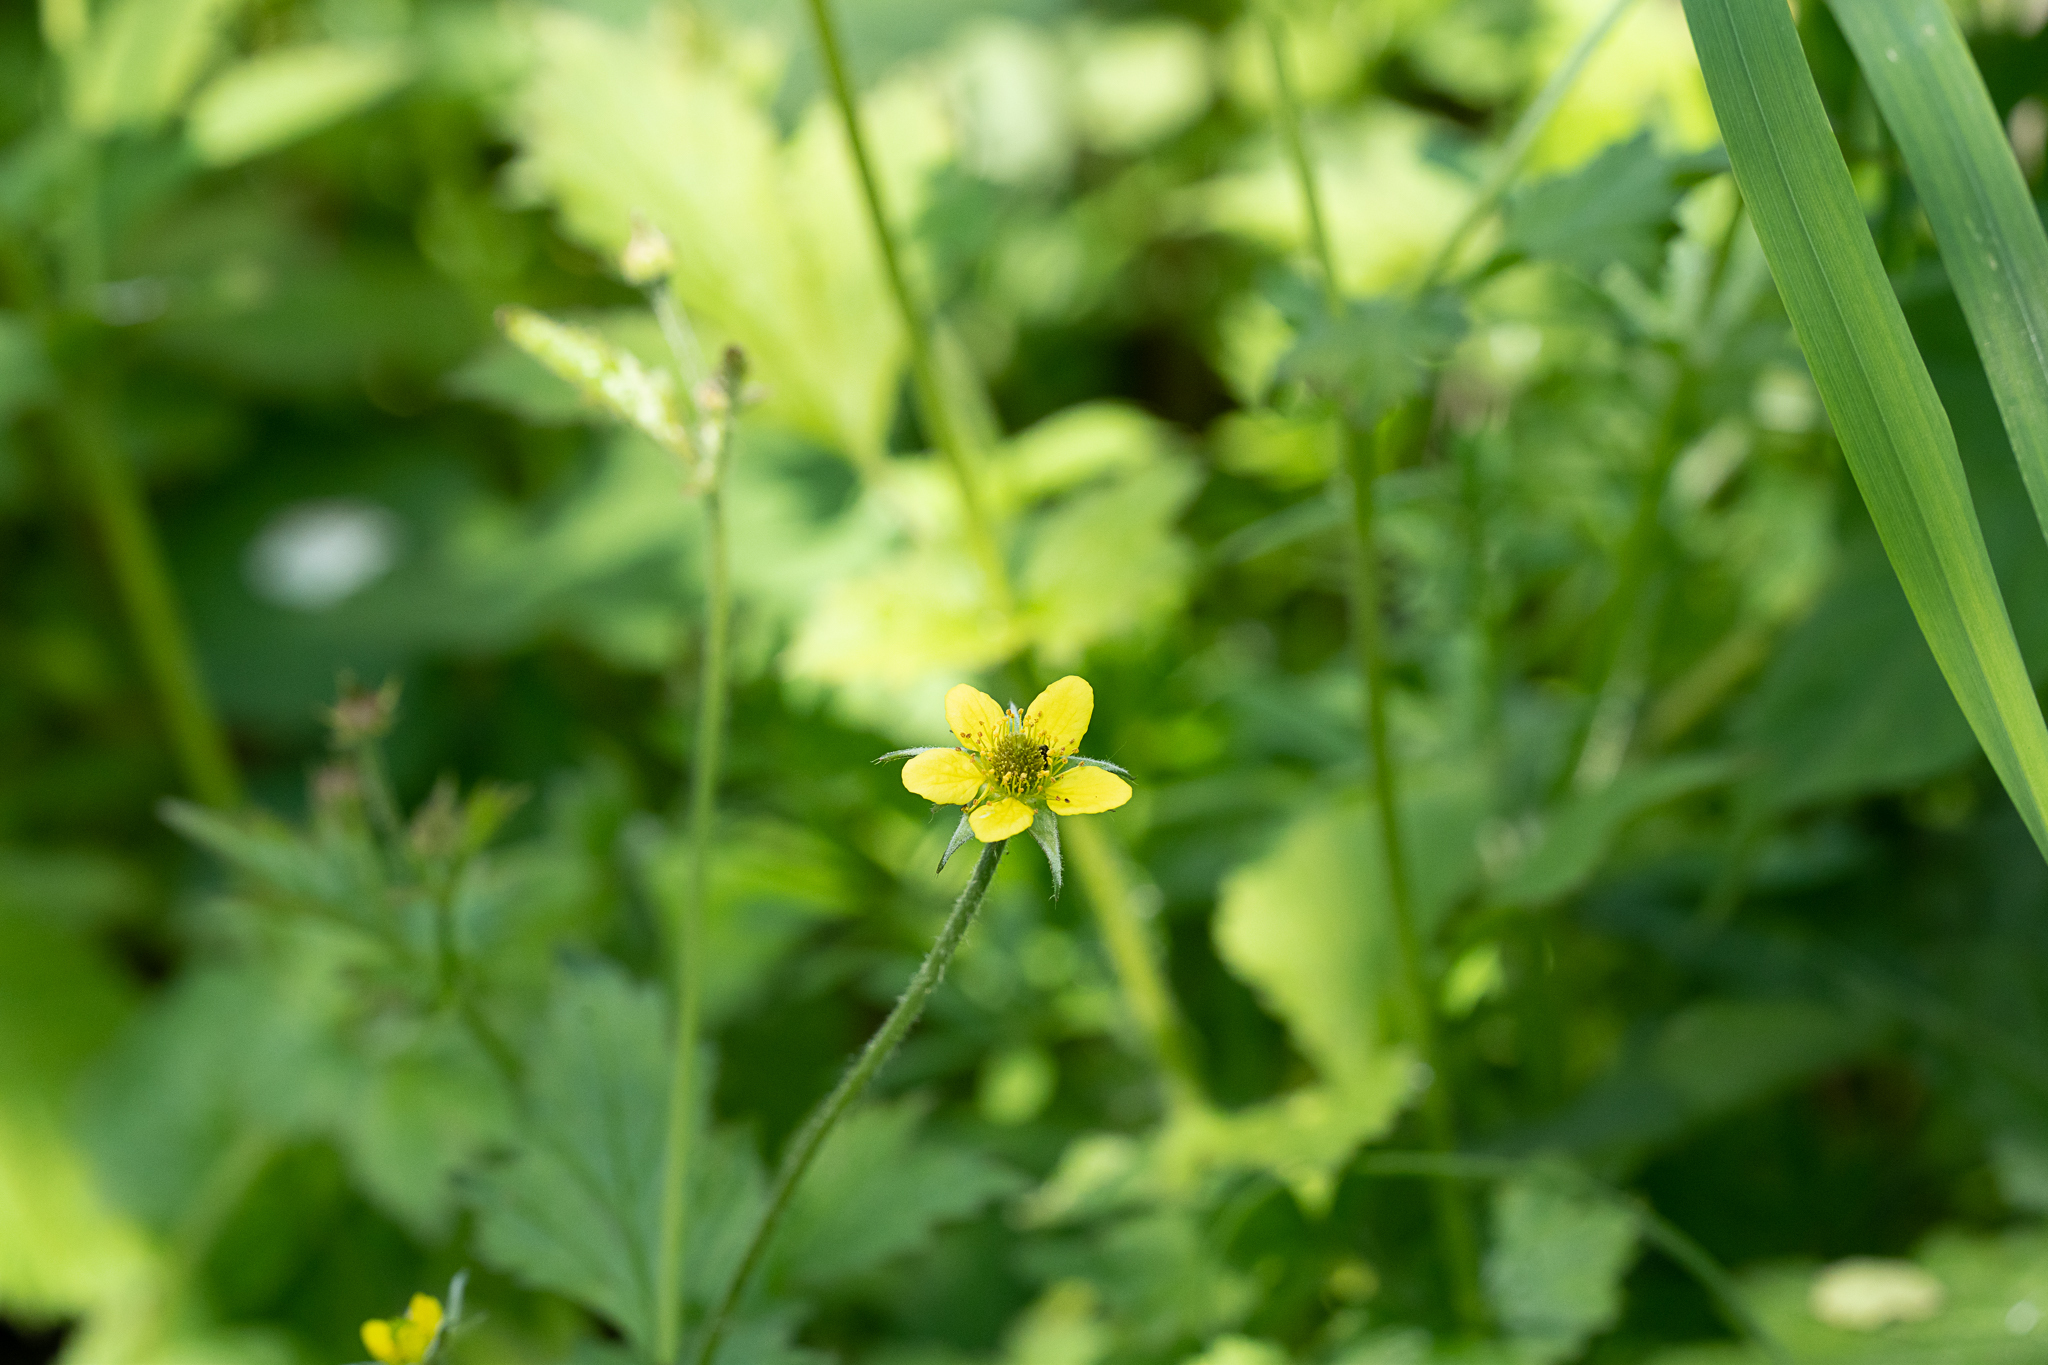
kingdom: Plantae
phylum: Tracheophyta
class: Magnoliopsida
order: Rosales
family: Rosaceae
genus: Geum
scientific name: Geum urbanum
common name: Wood avens
